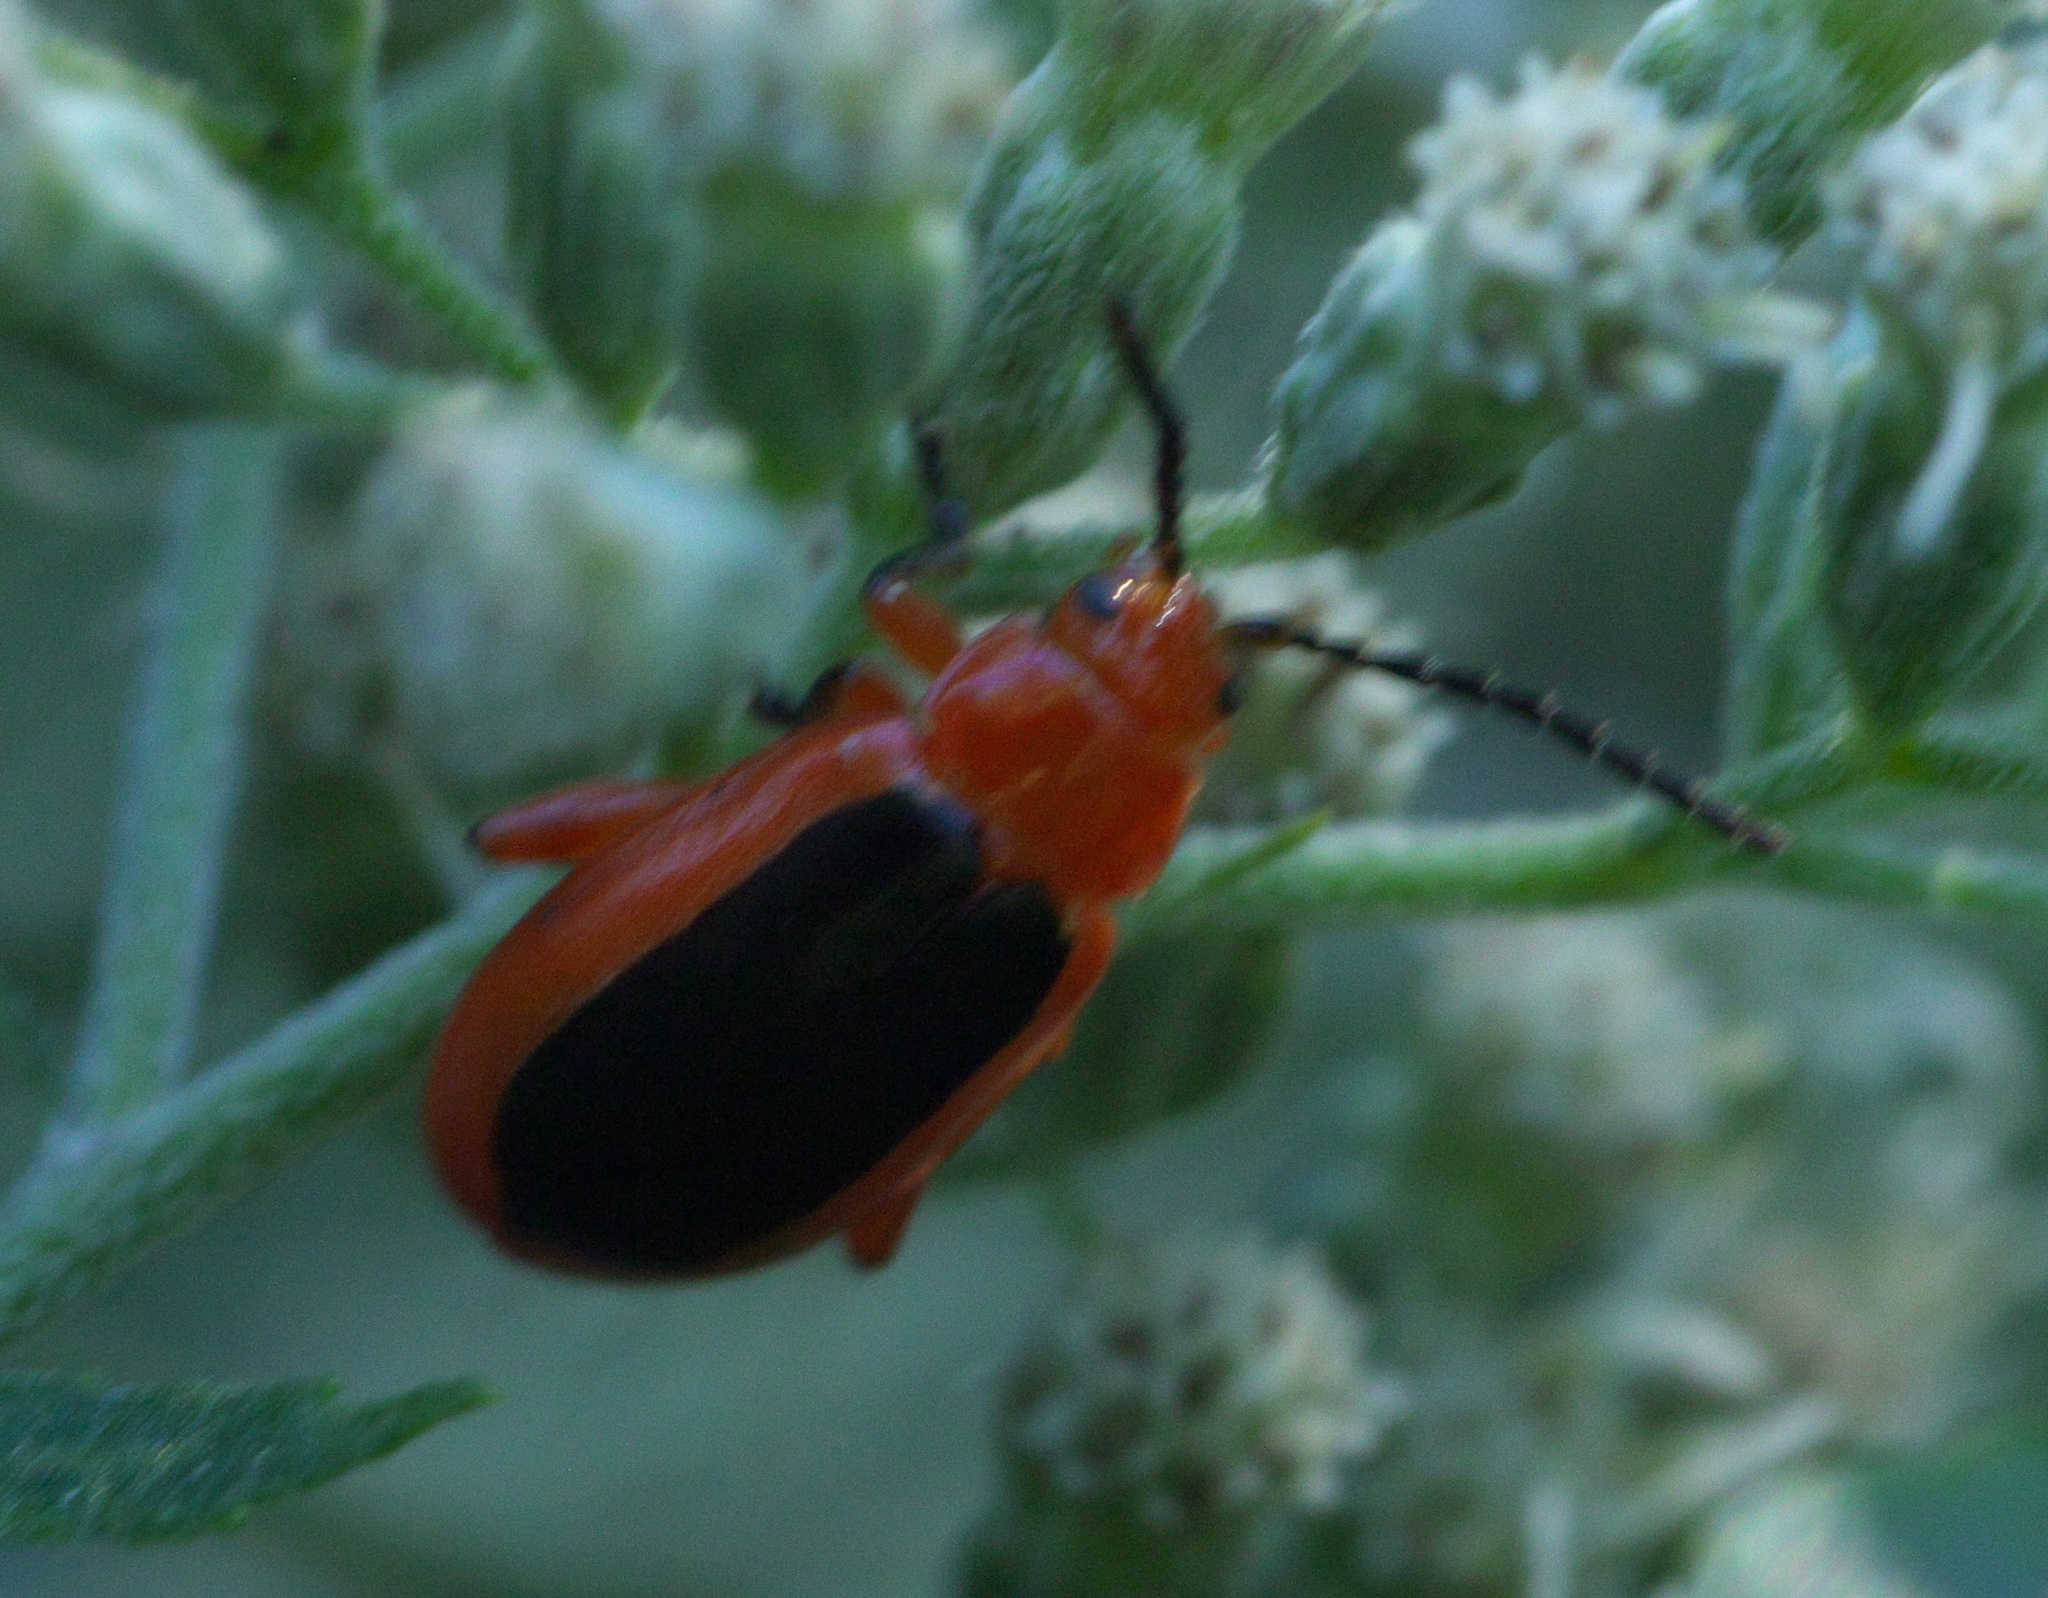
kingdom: Animalia
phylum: Arthropoda
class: Insecta
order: Coleoptera
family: Chrysomelidae
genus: Disonycha
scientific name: Disonycha discoidea
